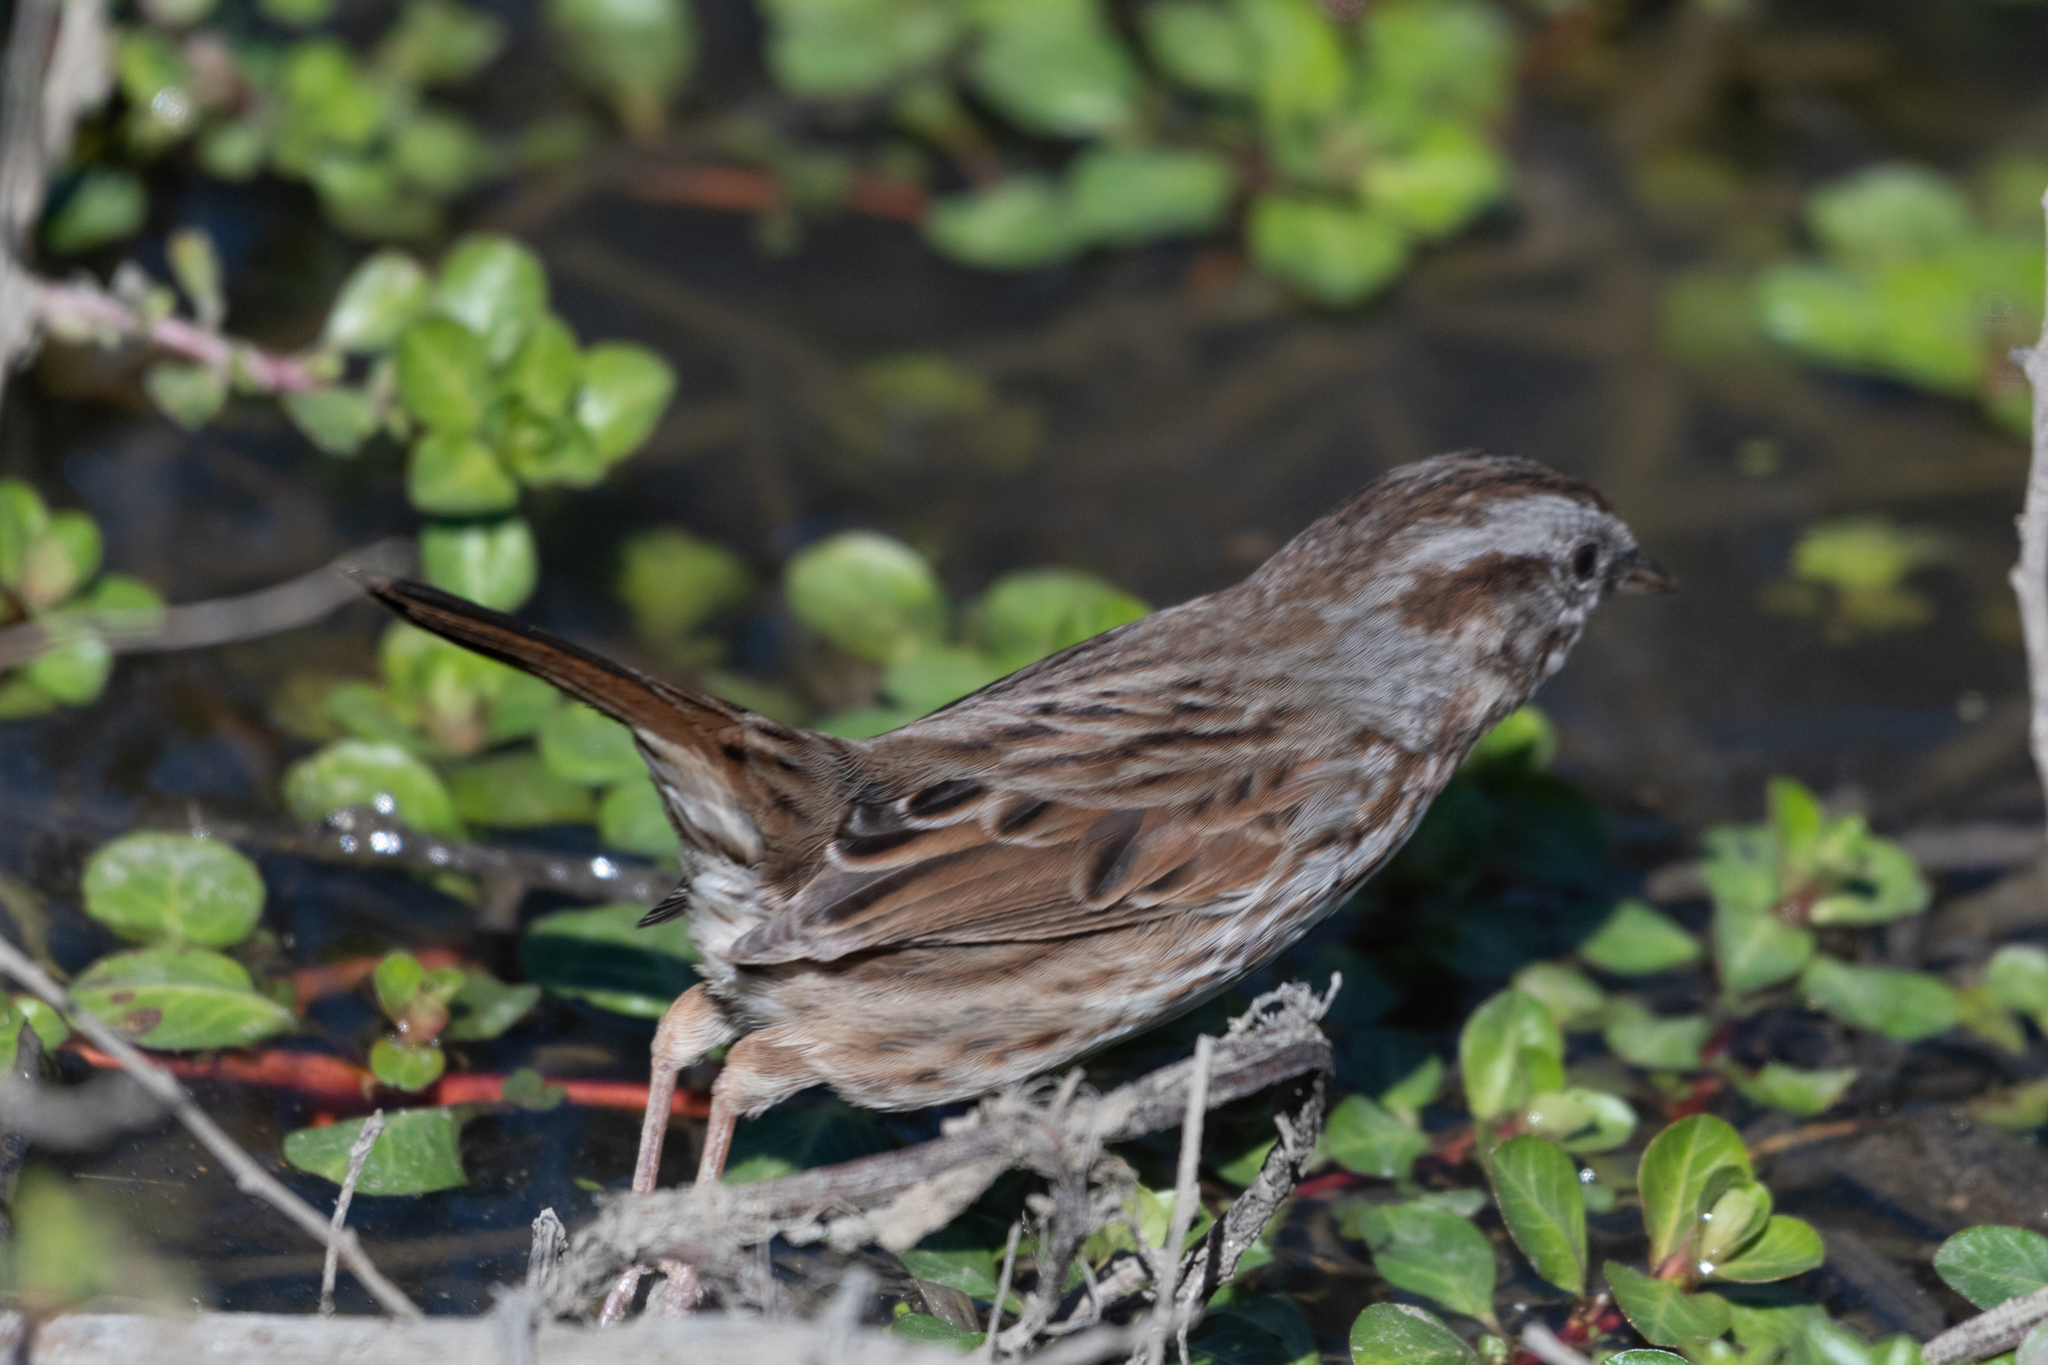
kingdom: Animalia
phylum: Chordata
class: Aves
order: Passeriformes
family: Passerellidae
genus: Melospiza
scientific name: Melospiza melodia
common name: Song sparrow
